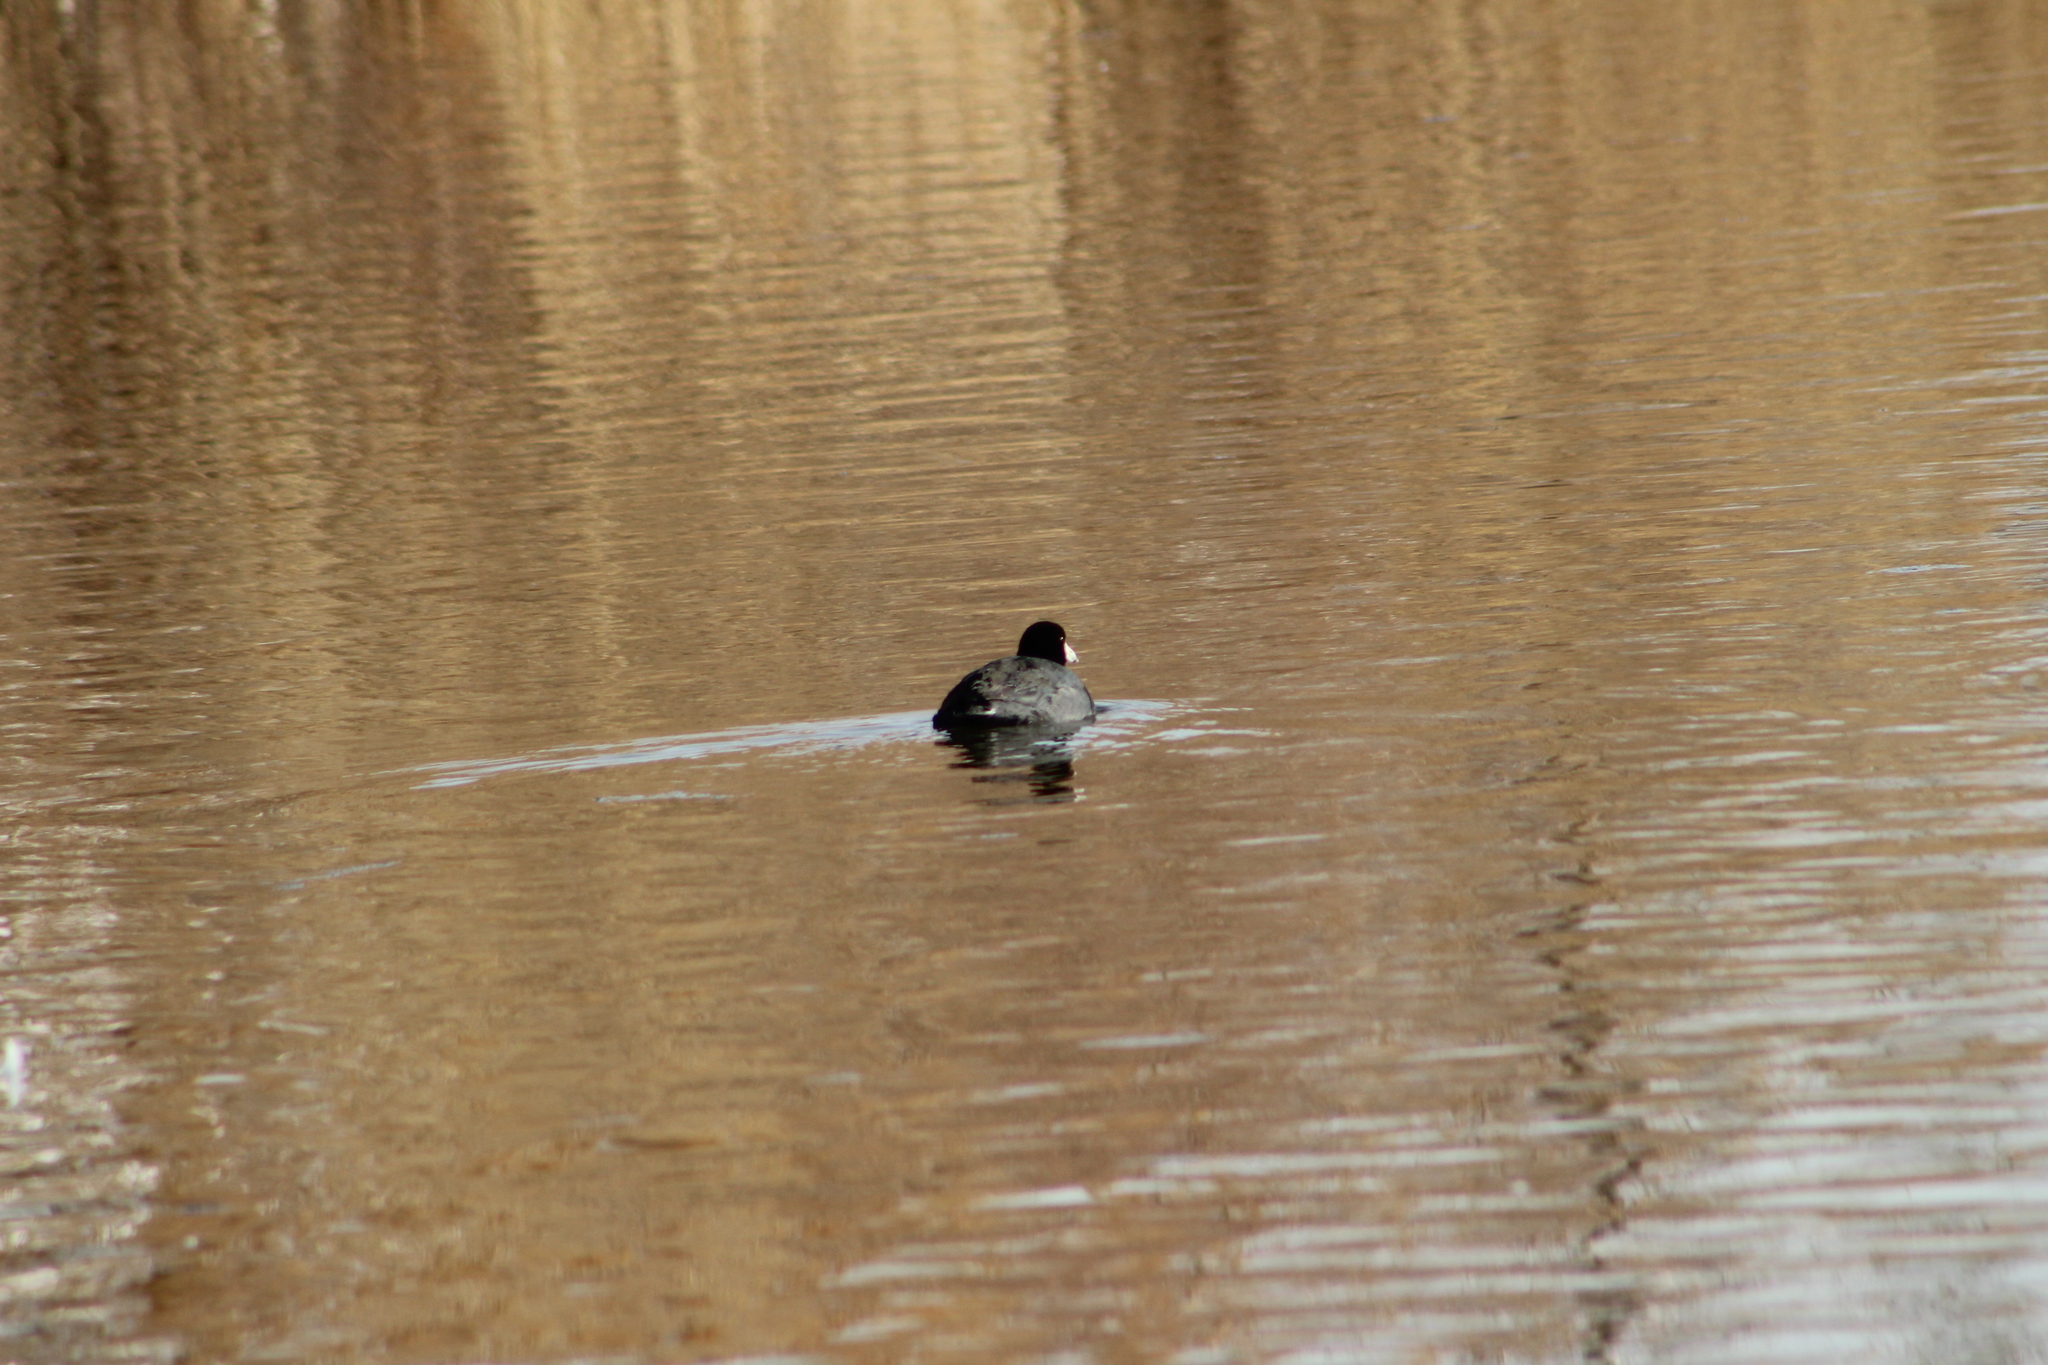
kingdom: Animalia
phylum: Chordata
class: Aves
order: Gruiformes
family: Rallidae
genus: Fulica
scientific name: Fulica americana
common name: American coot
